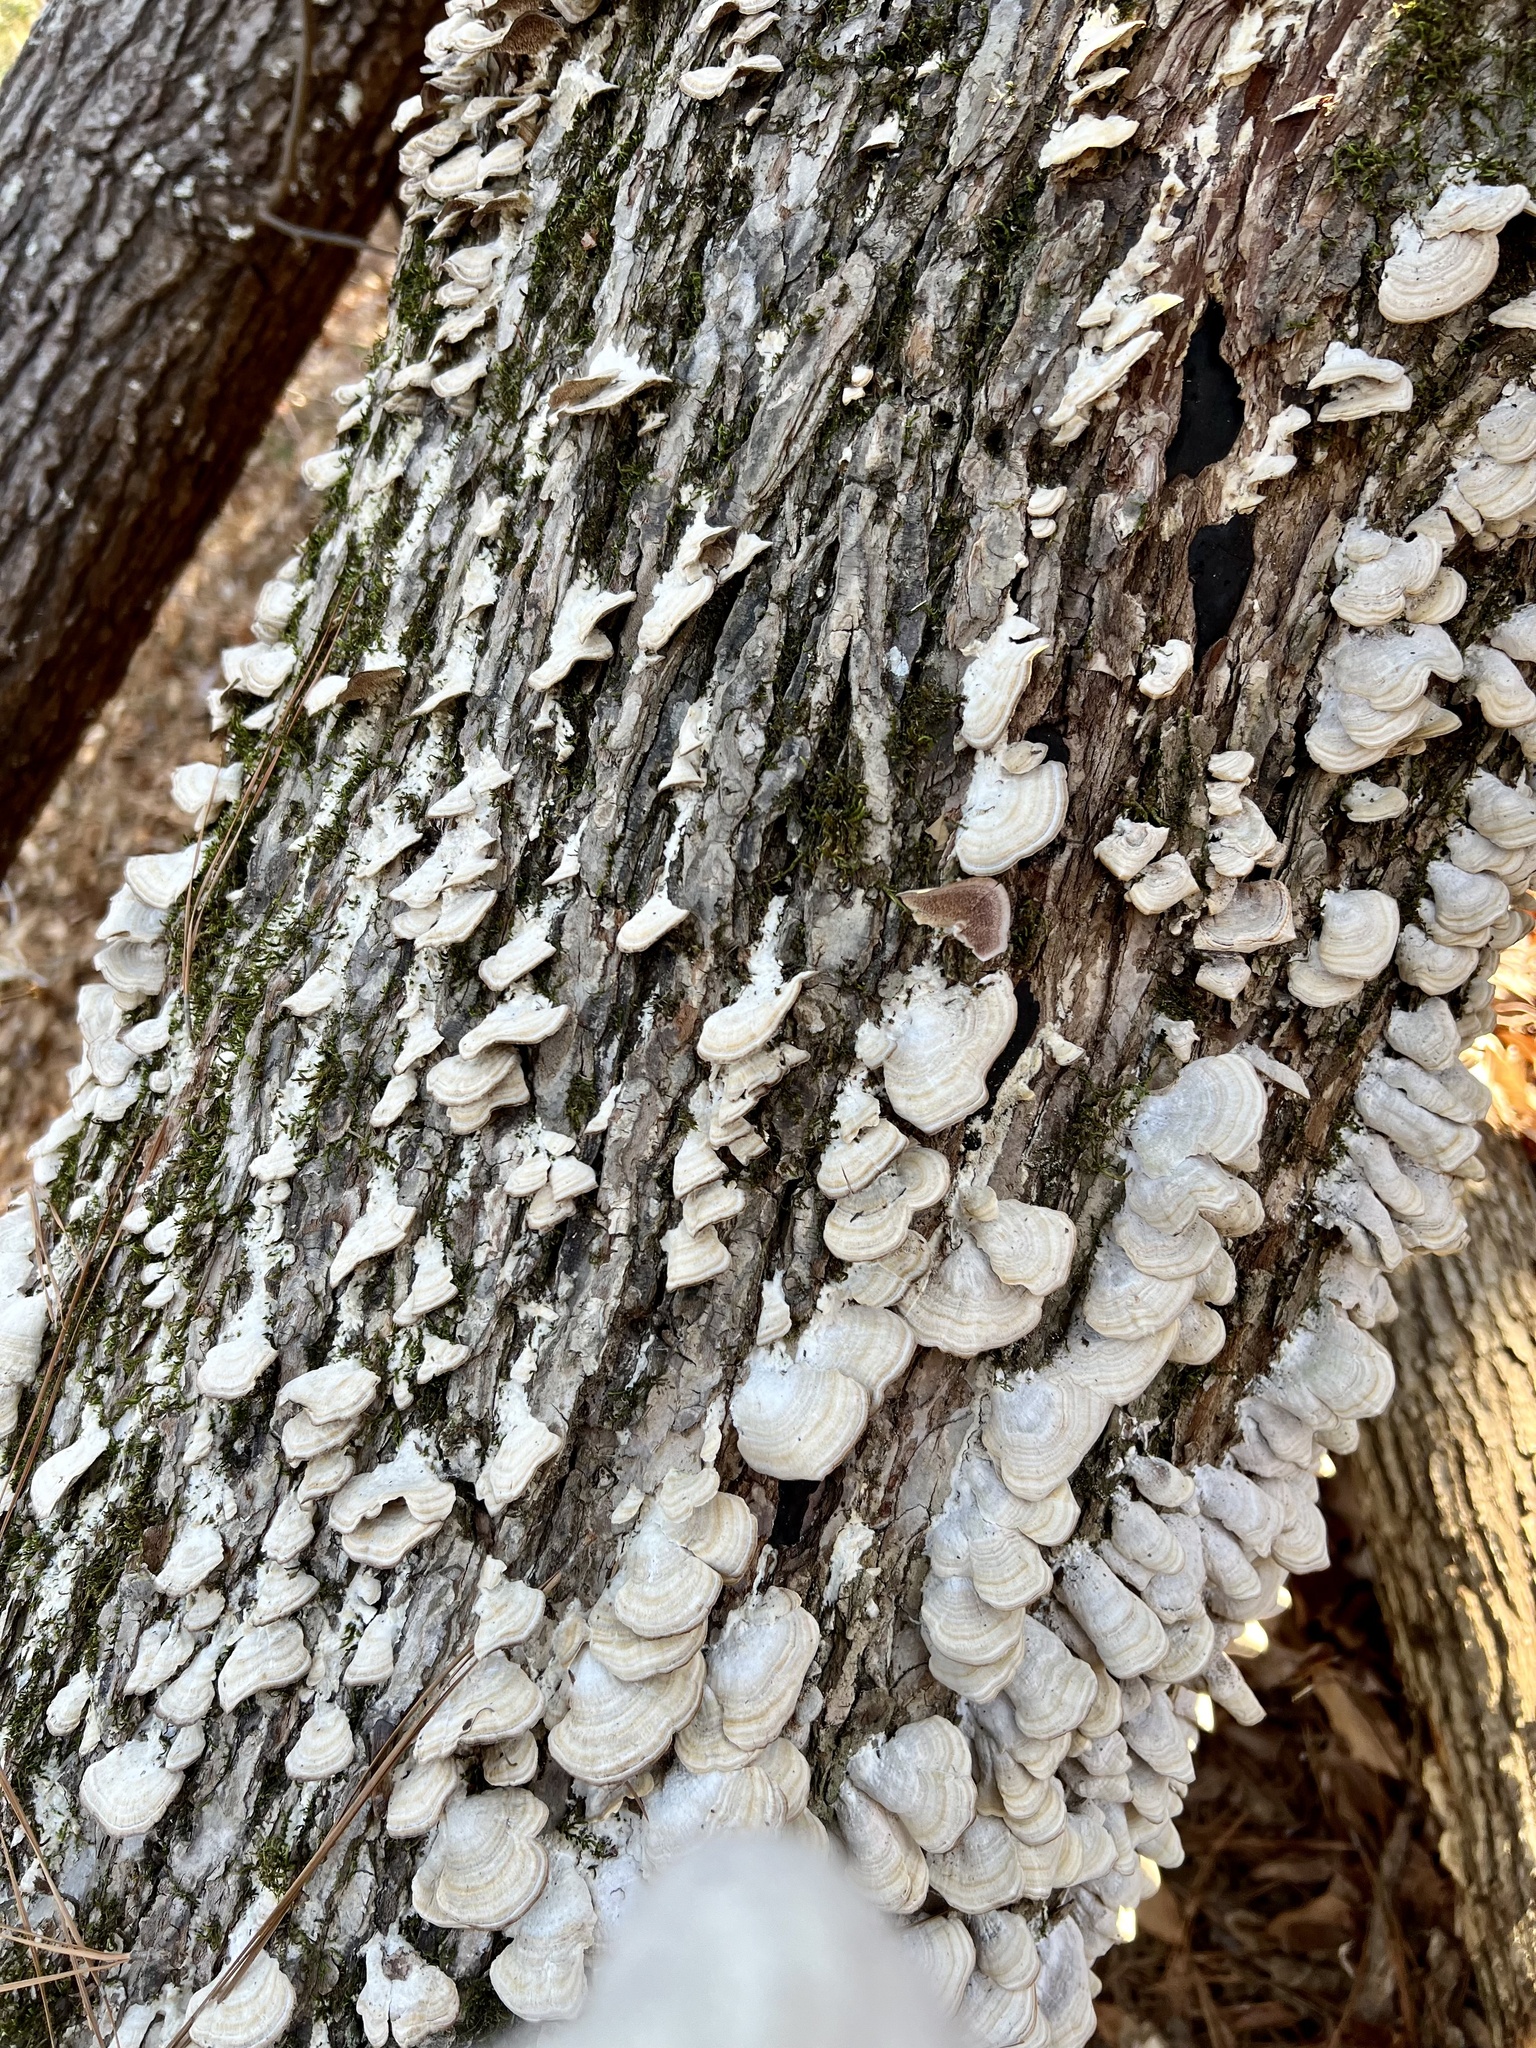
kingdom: Fungi
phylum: Basidiomycota
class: Agaricomycetes
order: Hymenochaetales
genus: Trichaptum
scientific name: Trichaptum biforme
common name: Violet-toothed polypore
